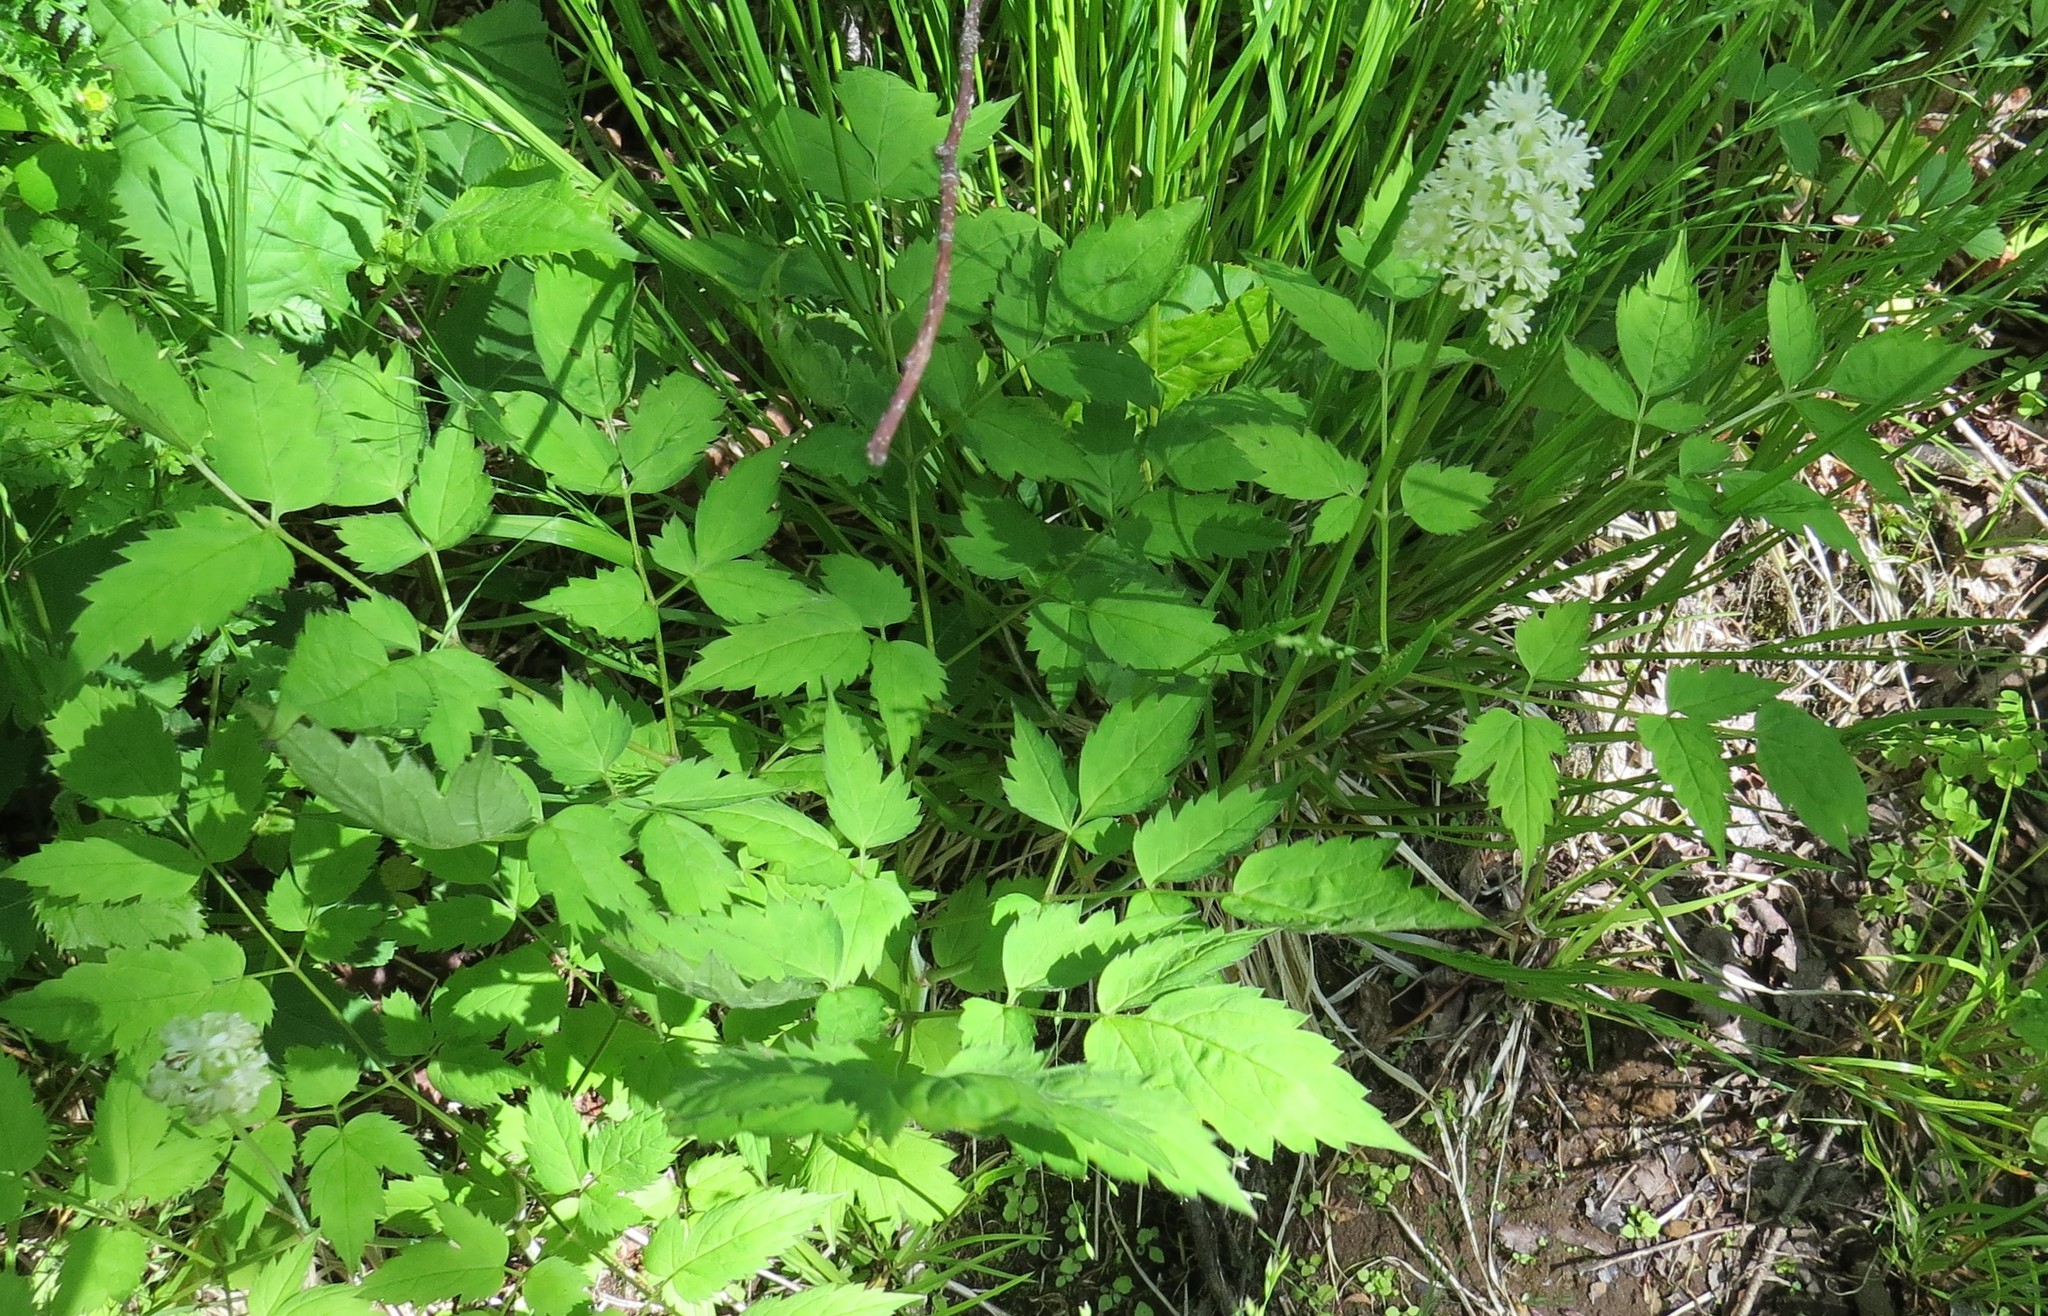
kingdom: Plantae
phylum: Tracheophyta
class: Magnoliopsida
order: Ranunculales
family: Ranunculaceae
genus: Actaea
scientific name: Actaea rubra
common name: Red baneberry
